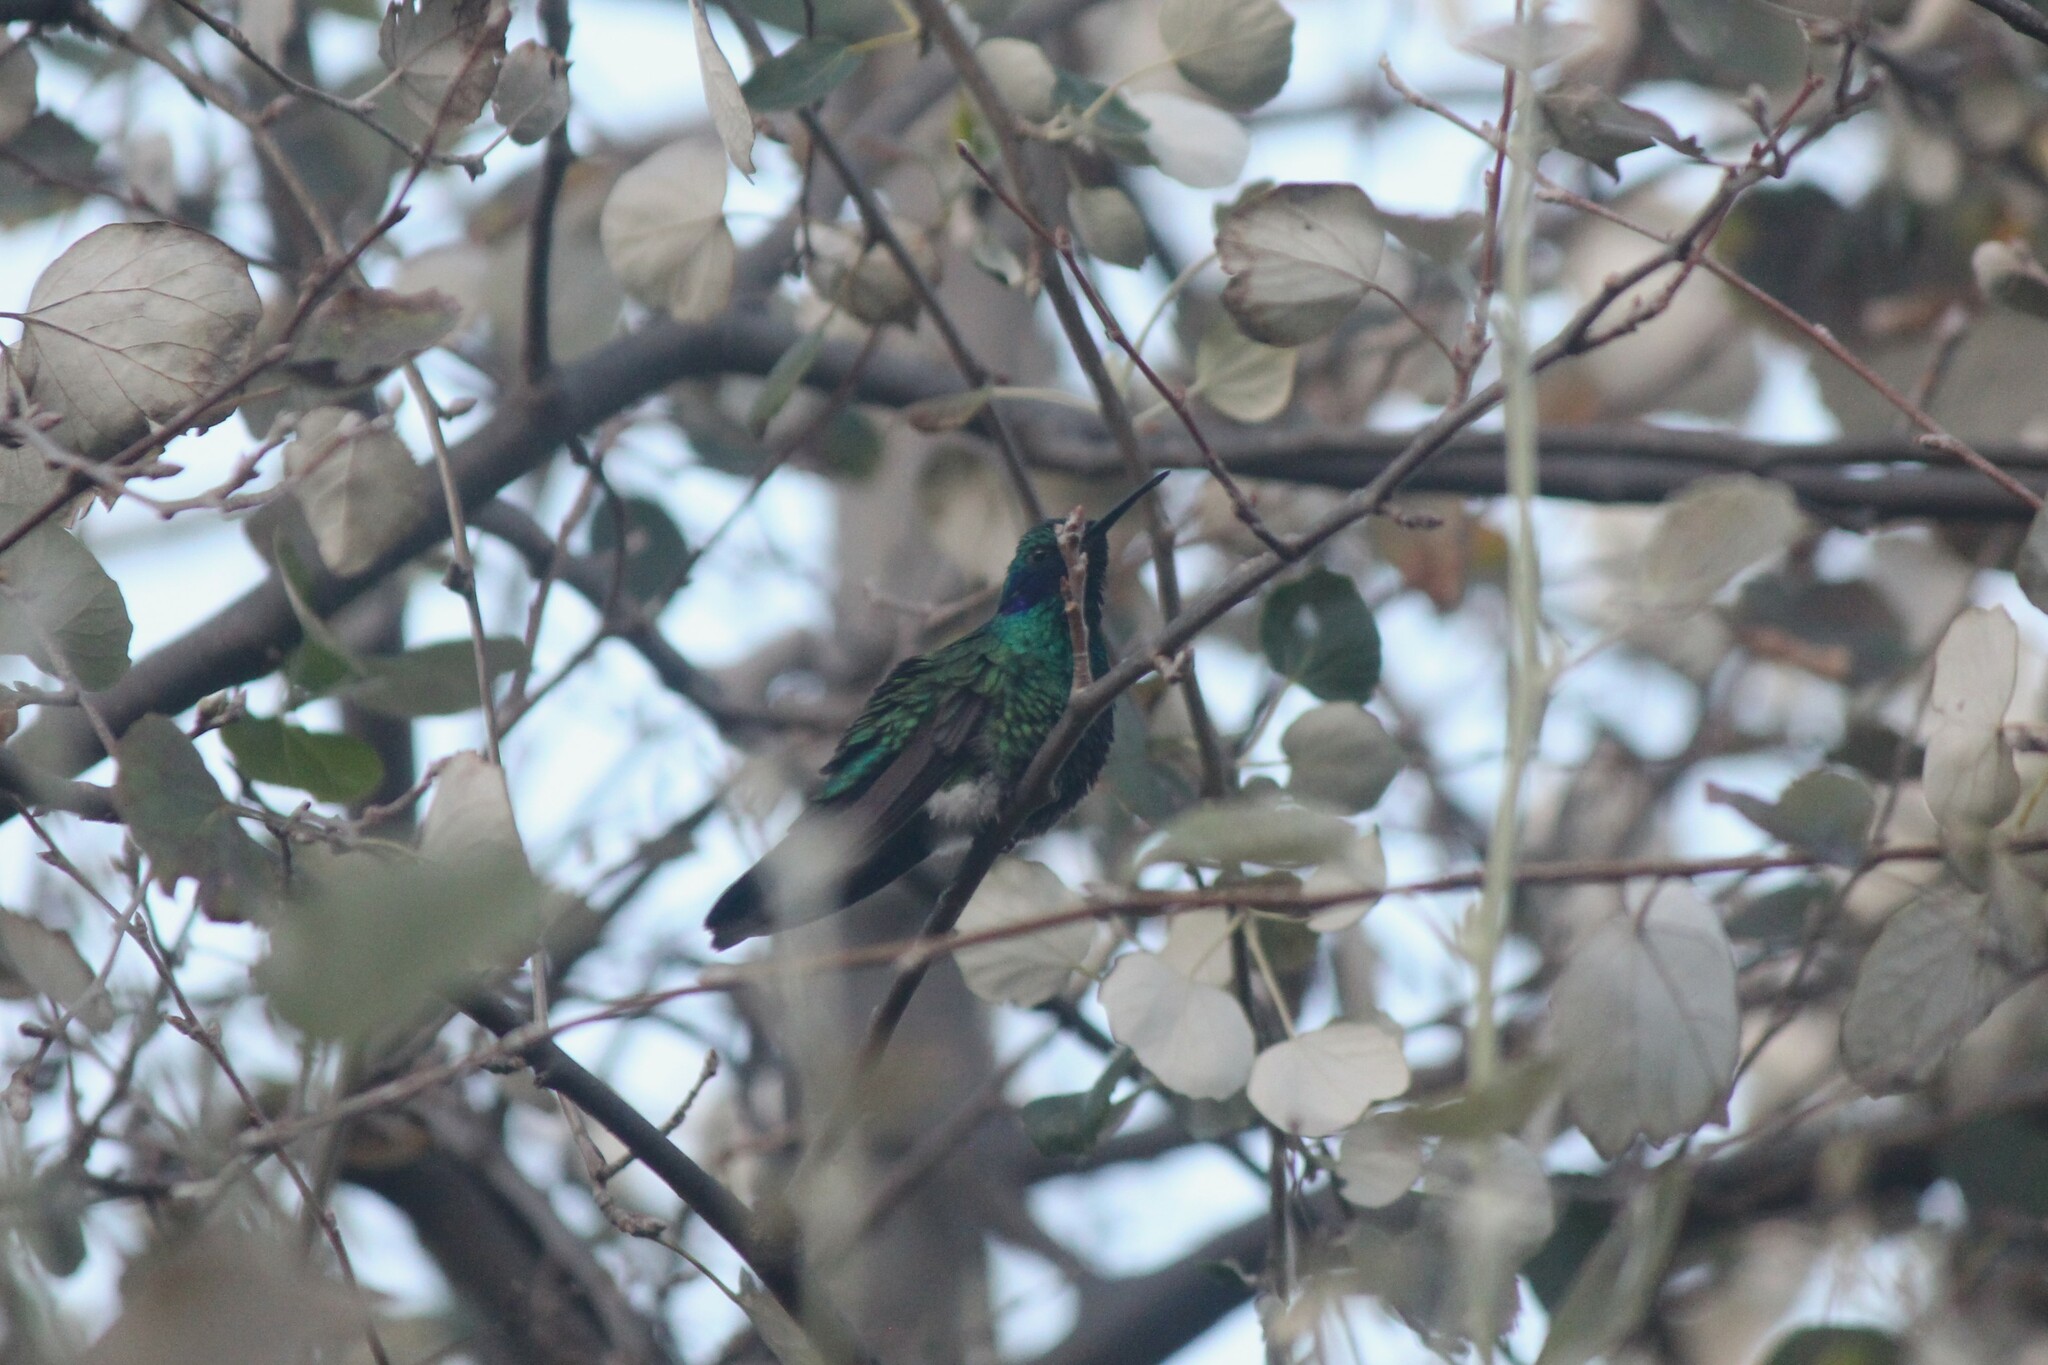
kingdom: Animalia
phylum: Chordata
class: Aves
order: Apodiformes
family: Trochilidae
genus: Colibri
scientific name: Colibri coruscans
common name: Sparkling violetear
